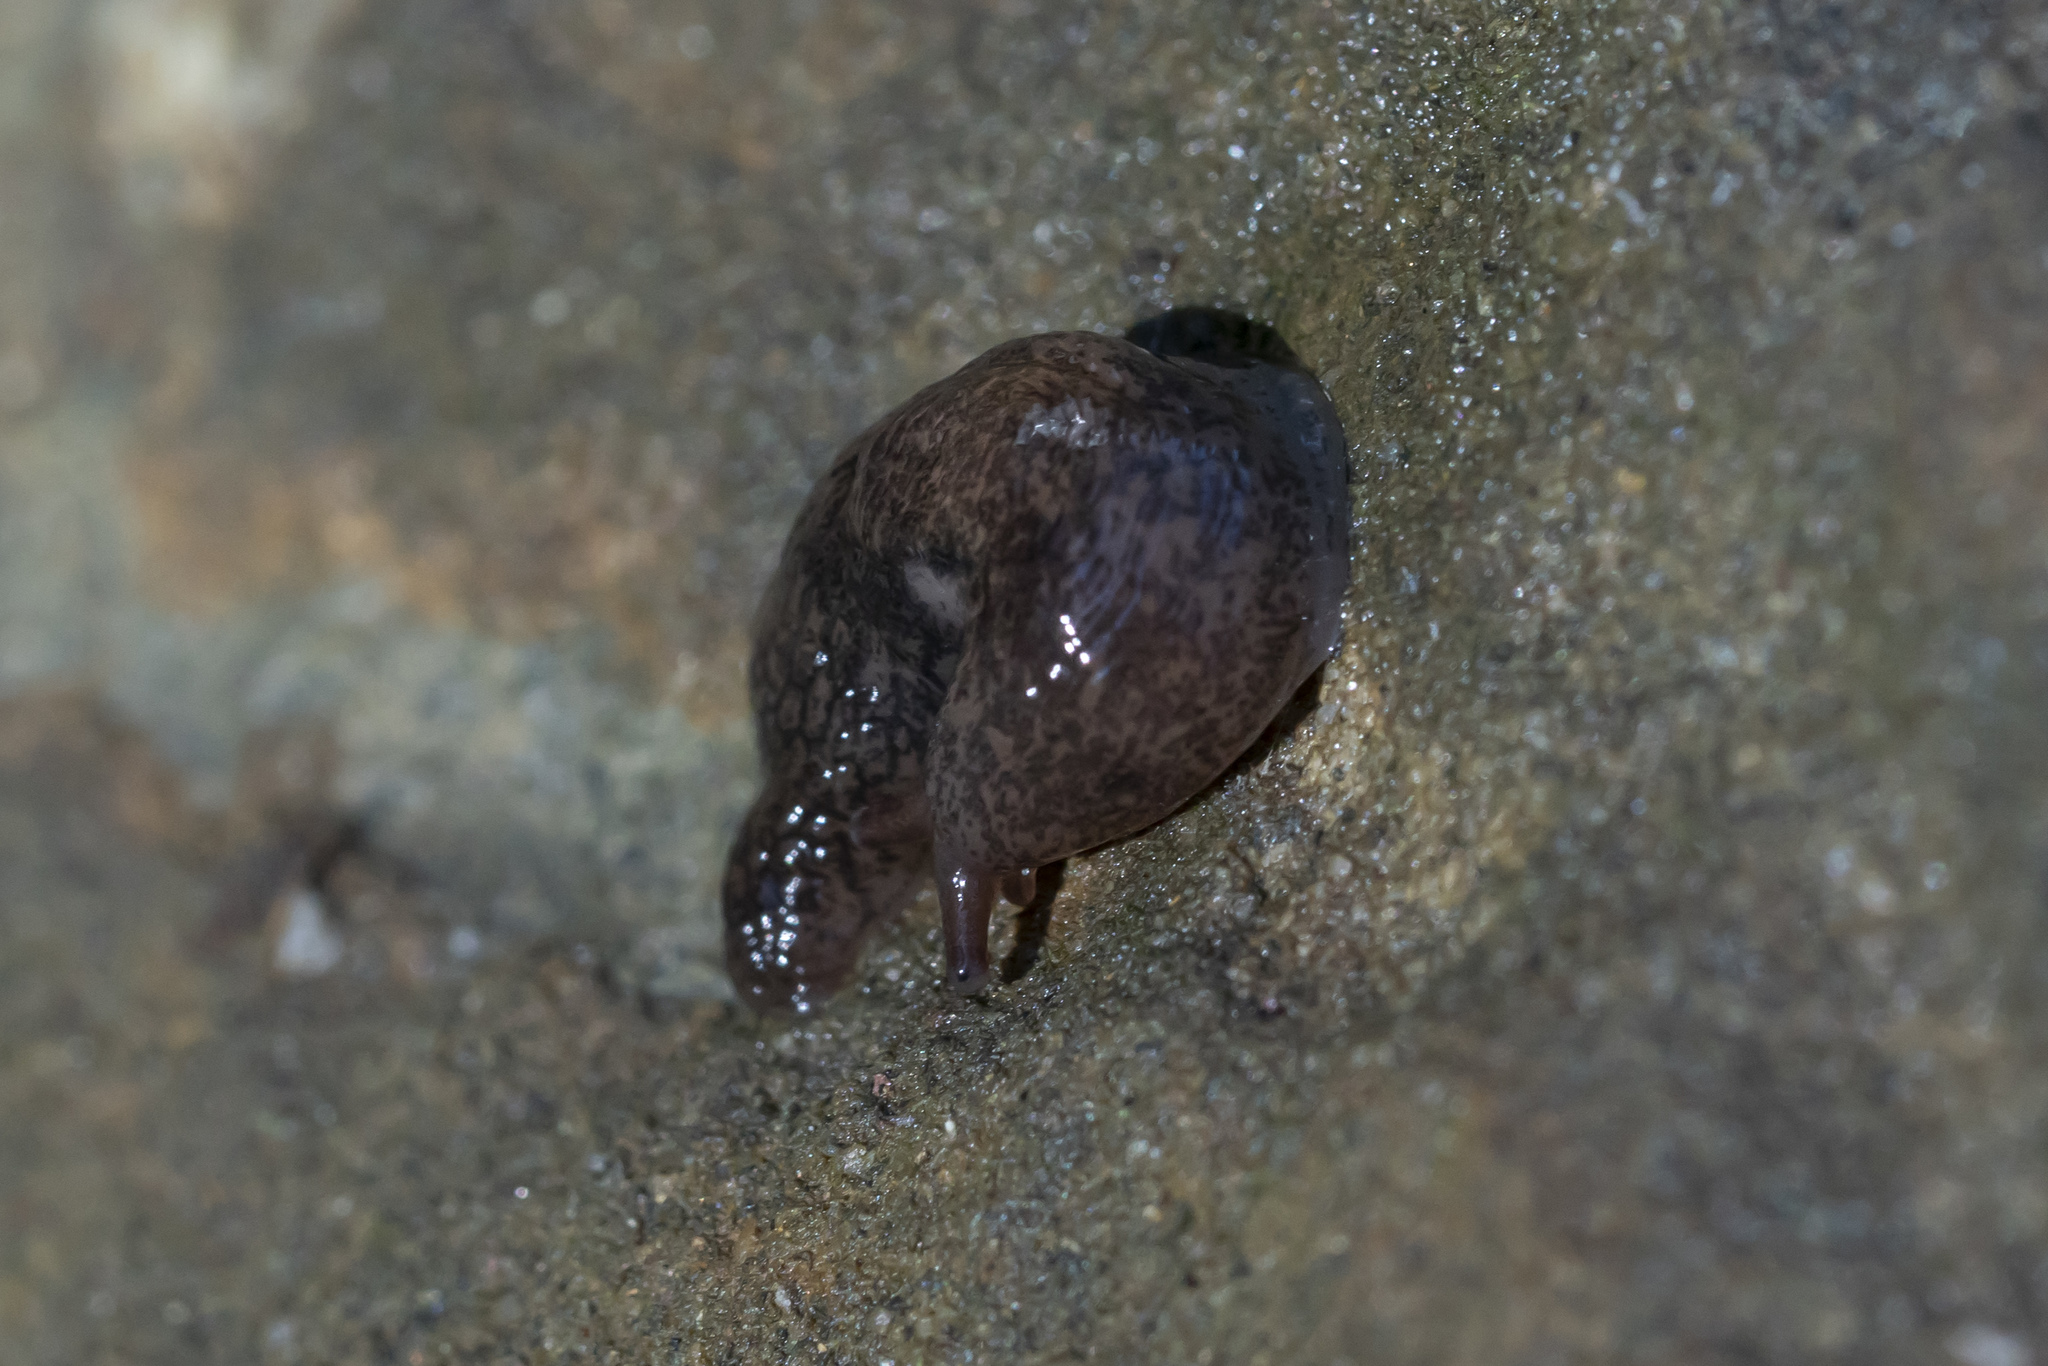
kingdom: Animalia
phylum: Mollusca
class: Gastropoda
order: Stylommatophora
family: Agriolimacidae
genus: Deroceras
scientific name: Deroceras neuteboomi
